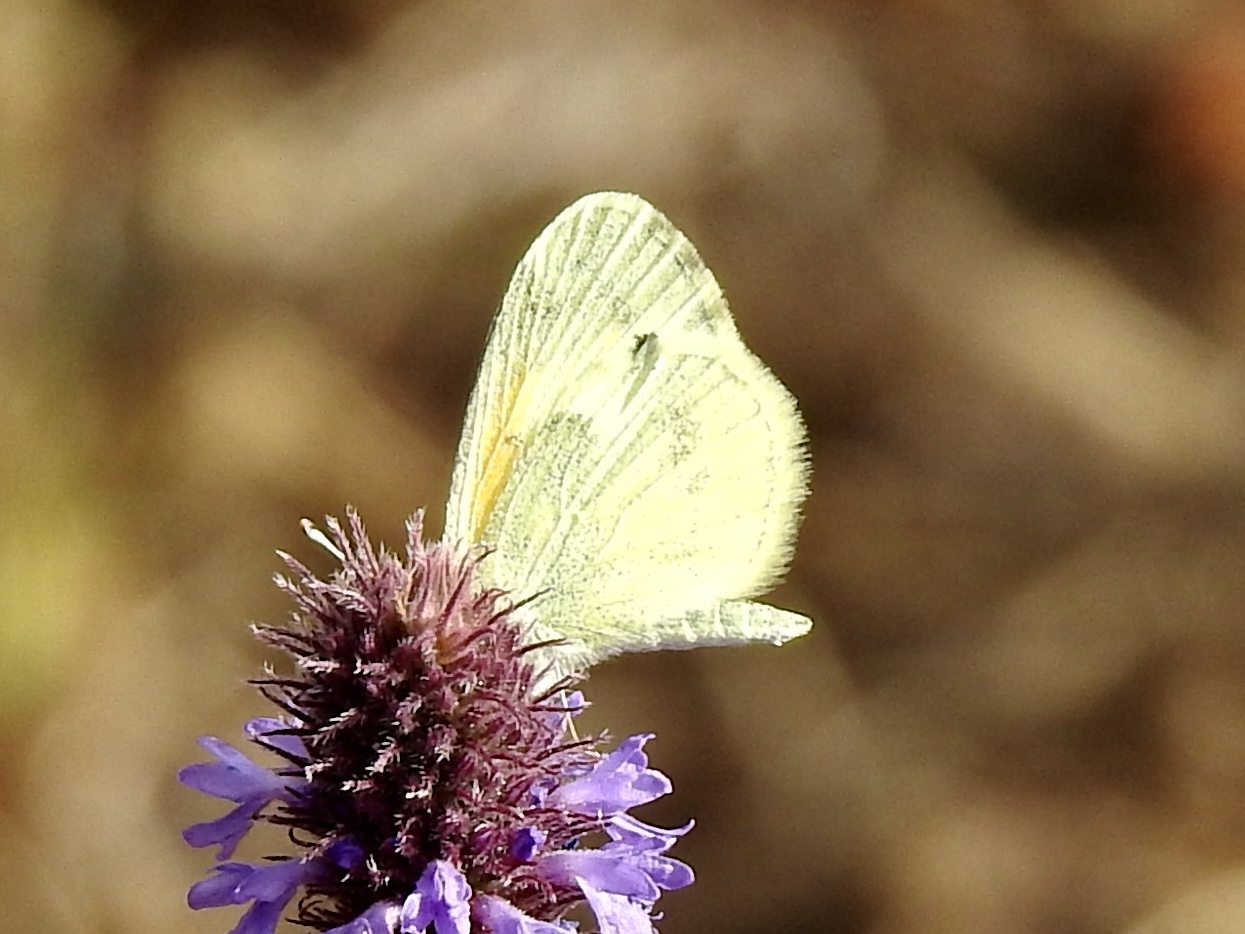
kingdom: Animalia
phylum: Arthropoda
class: Insecta
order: Lepidoptera
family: Pieridae
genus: Nathalis
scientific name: Nathalis iole
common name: Dainty sulphur
